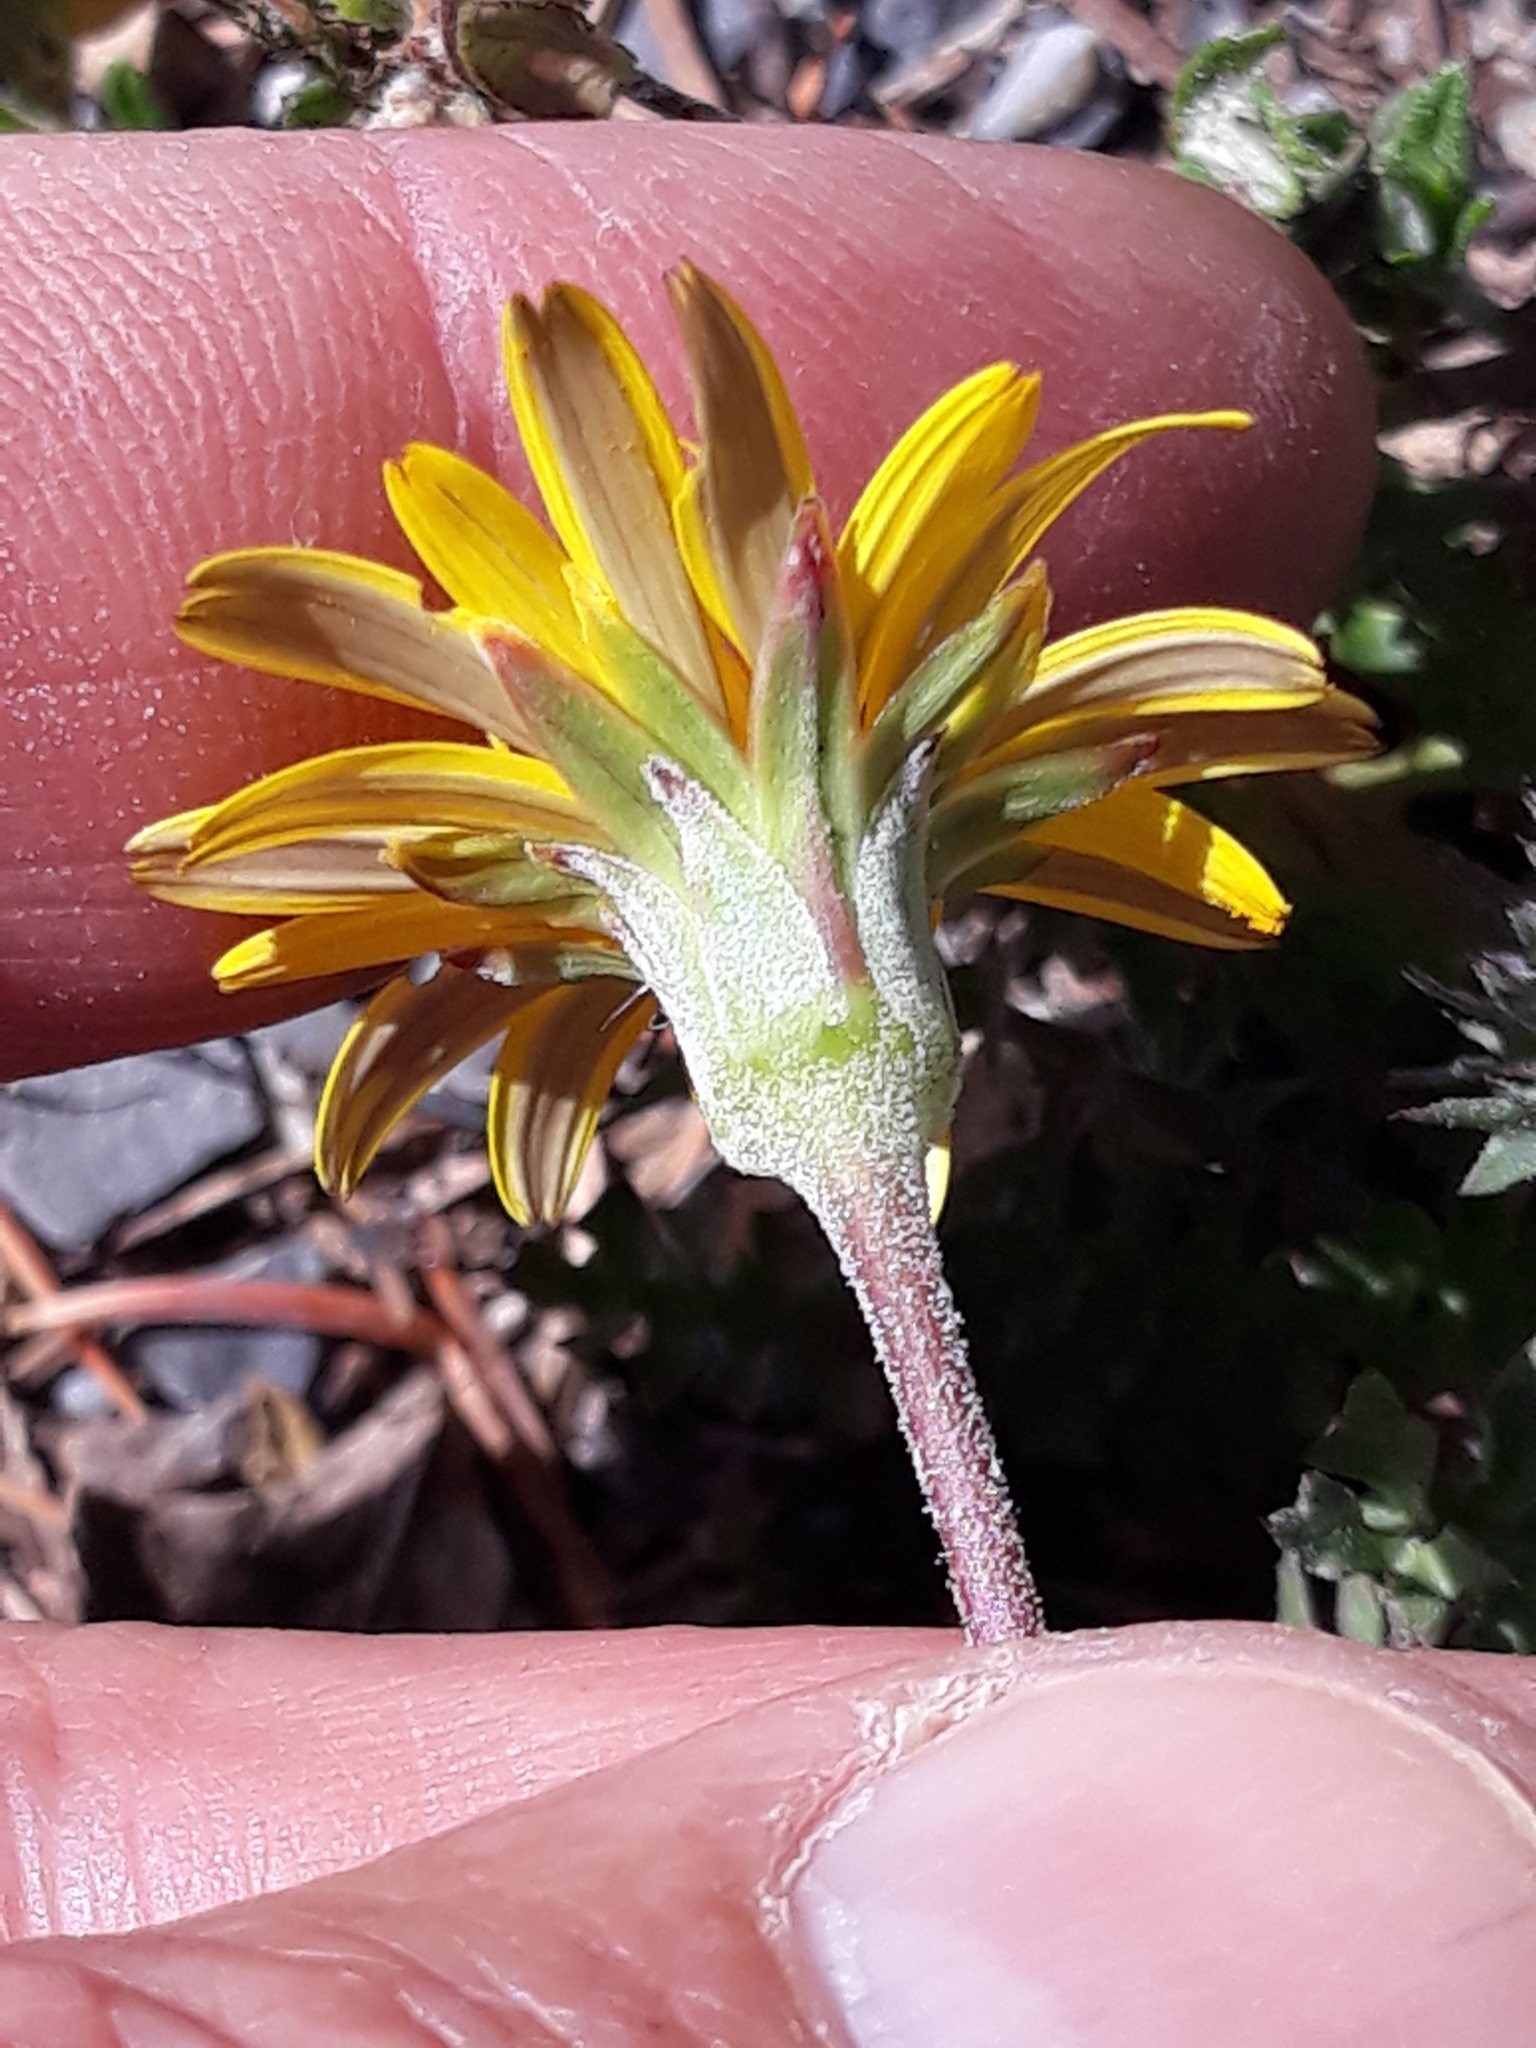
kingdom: Plantae
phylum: Tracheophyta
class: Magnoliopsida
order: Asterales
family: Asteraceae
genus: Hyoseris
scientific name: Hyoseris radiata
